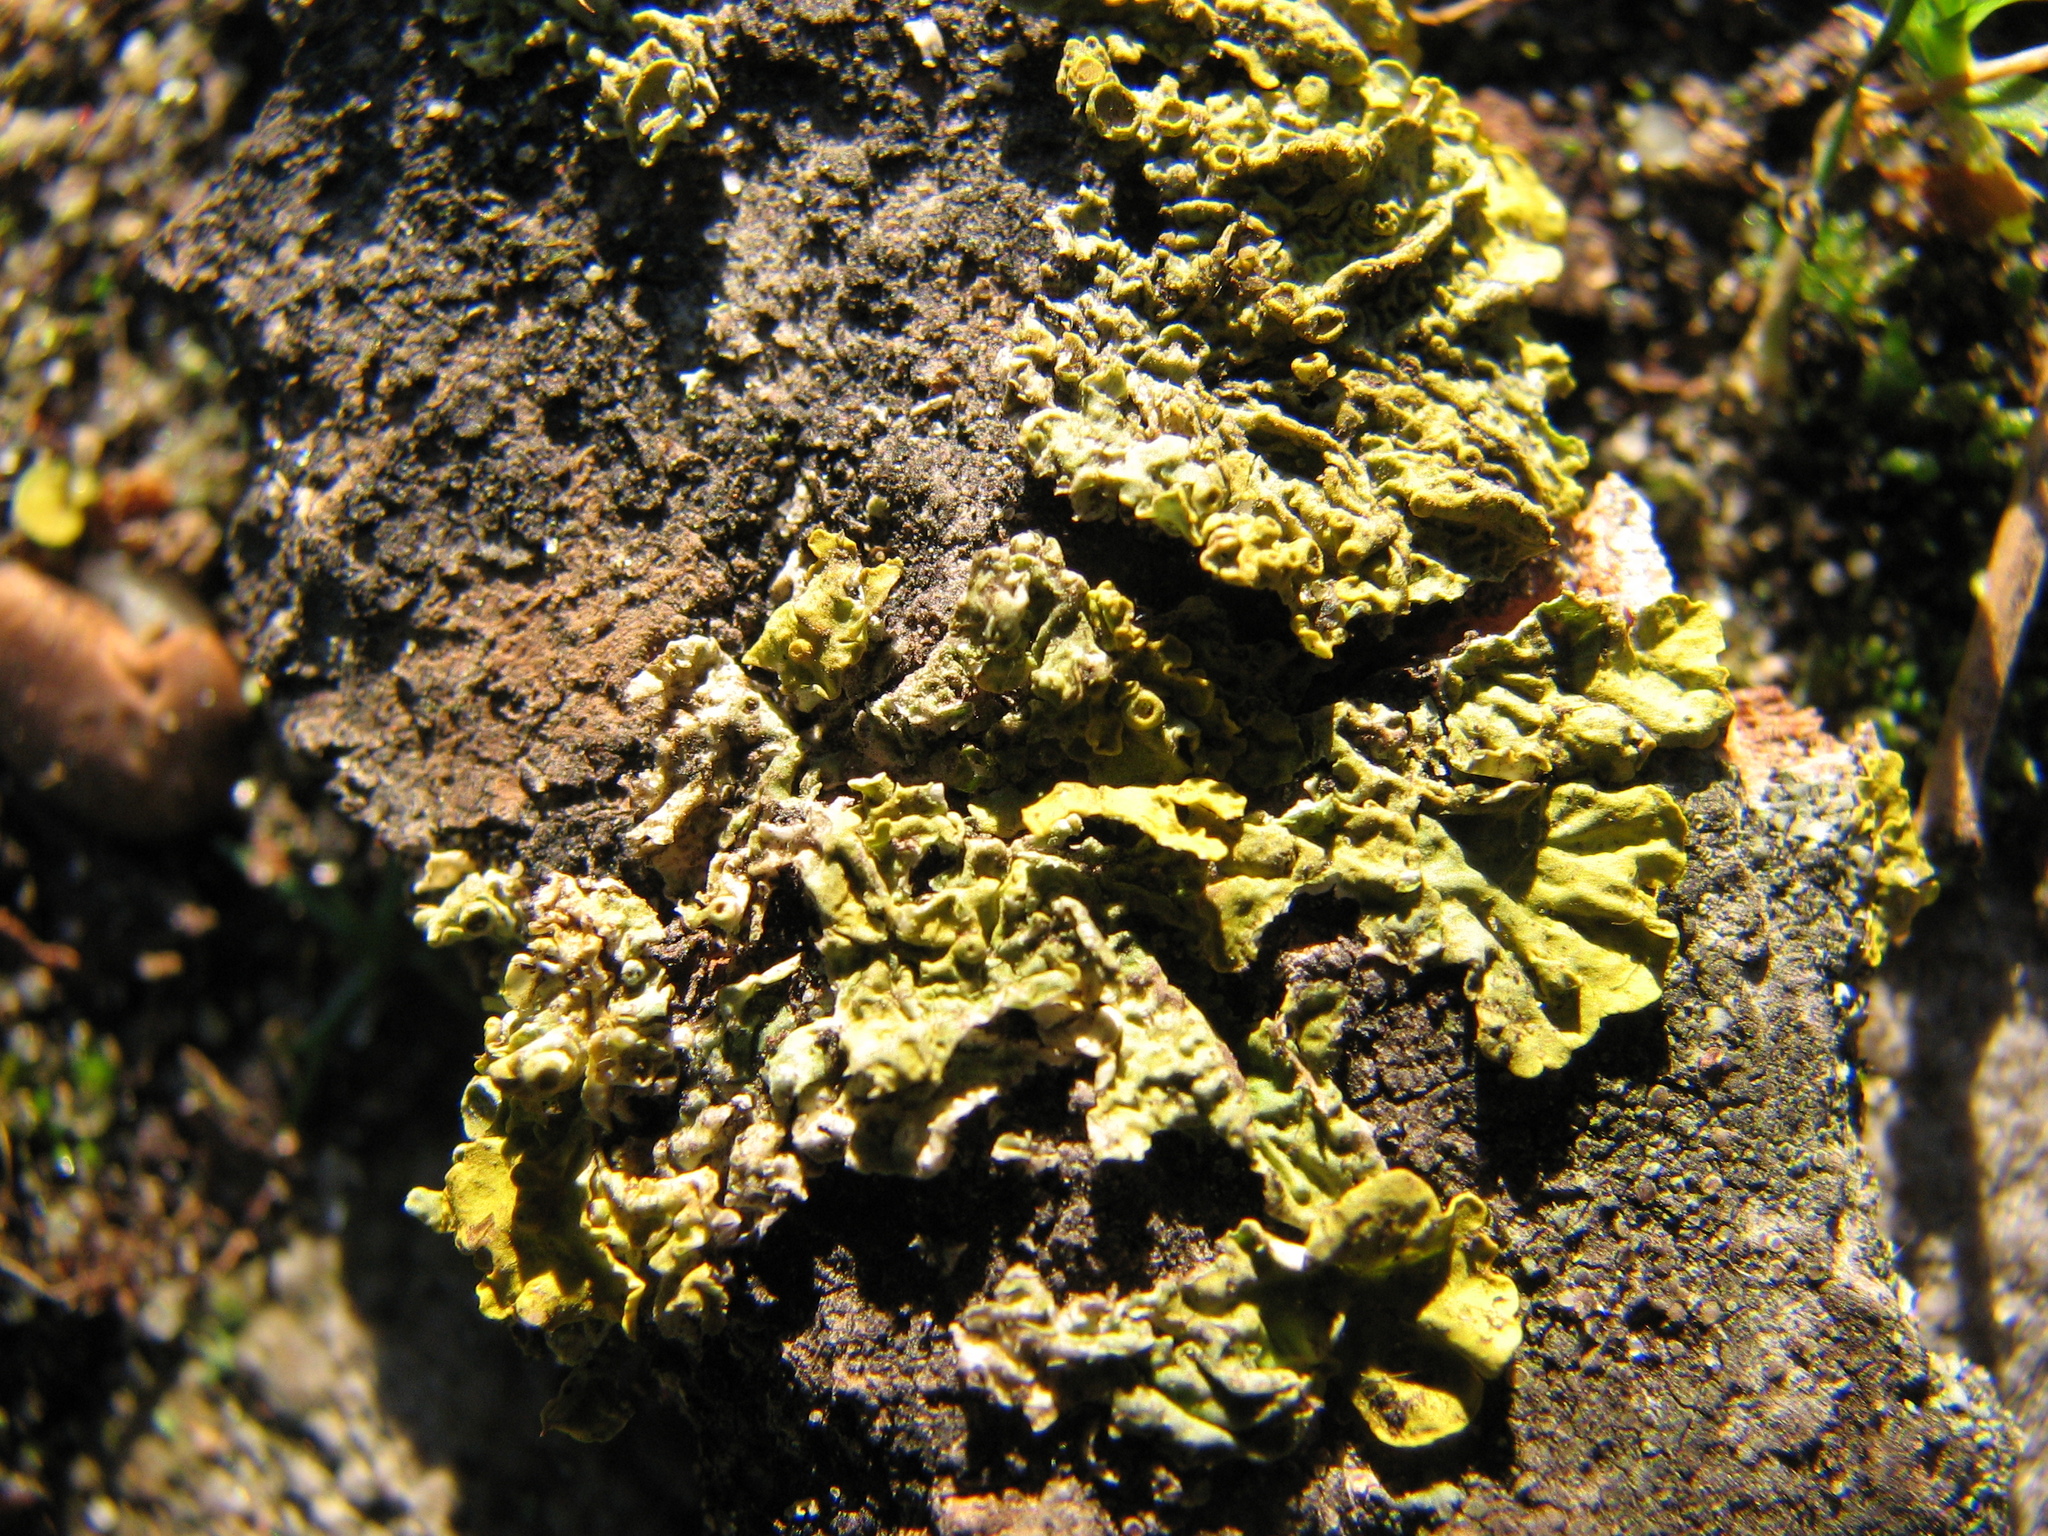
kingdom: Fungi
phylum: Ascomycota
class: Lecanoromycetes
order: Teloschistales
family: Teloschistaceae
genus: Xanthoria
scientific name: Xanthoria parietina
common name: Common orange lichen
